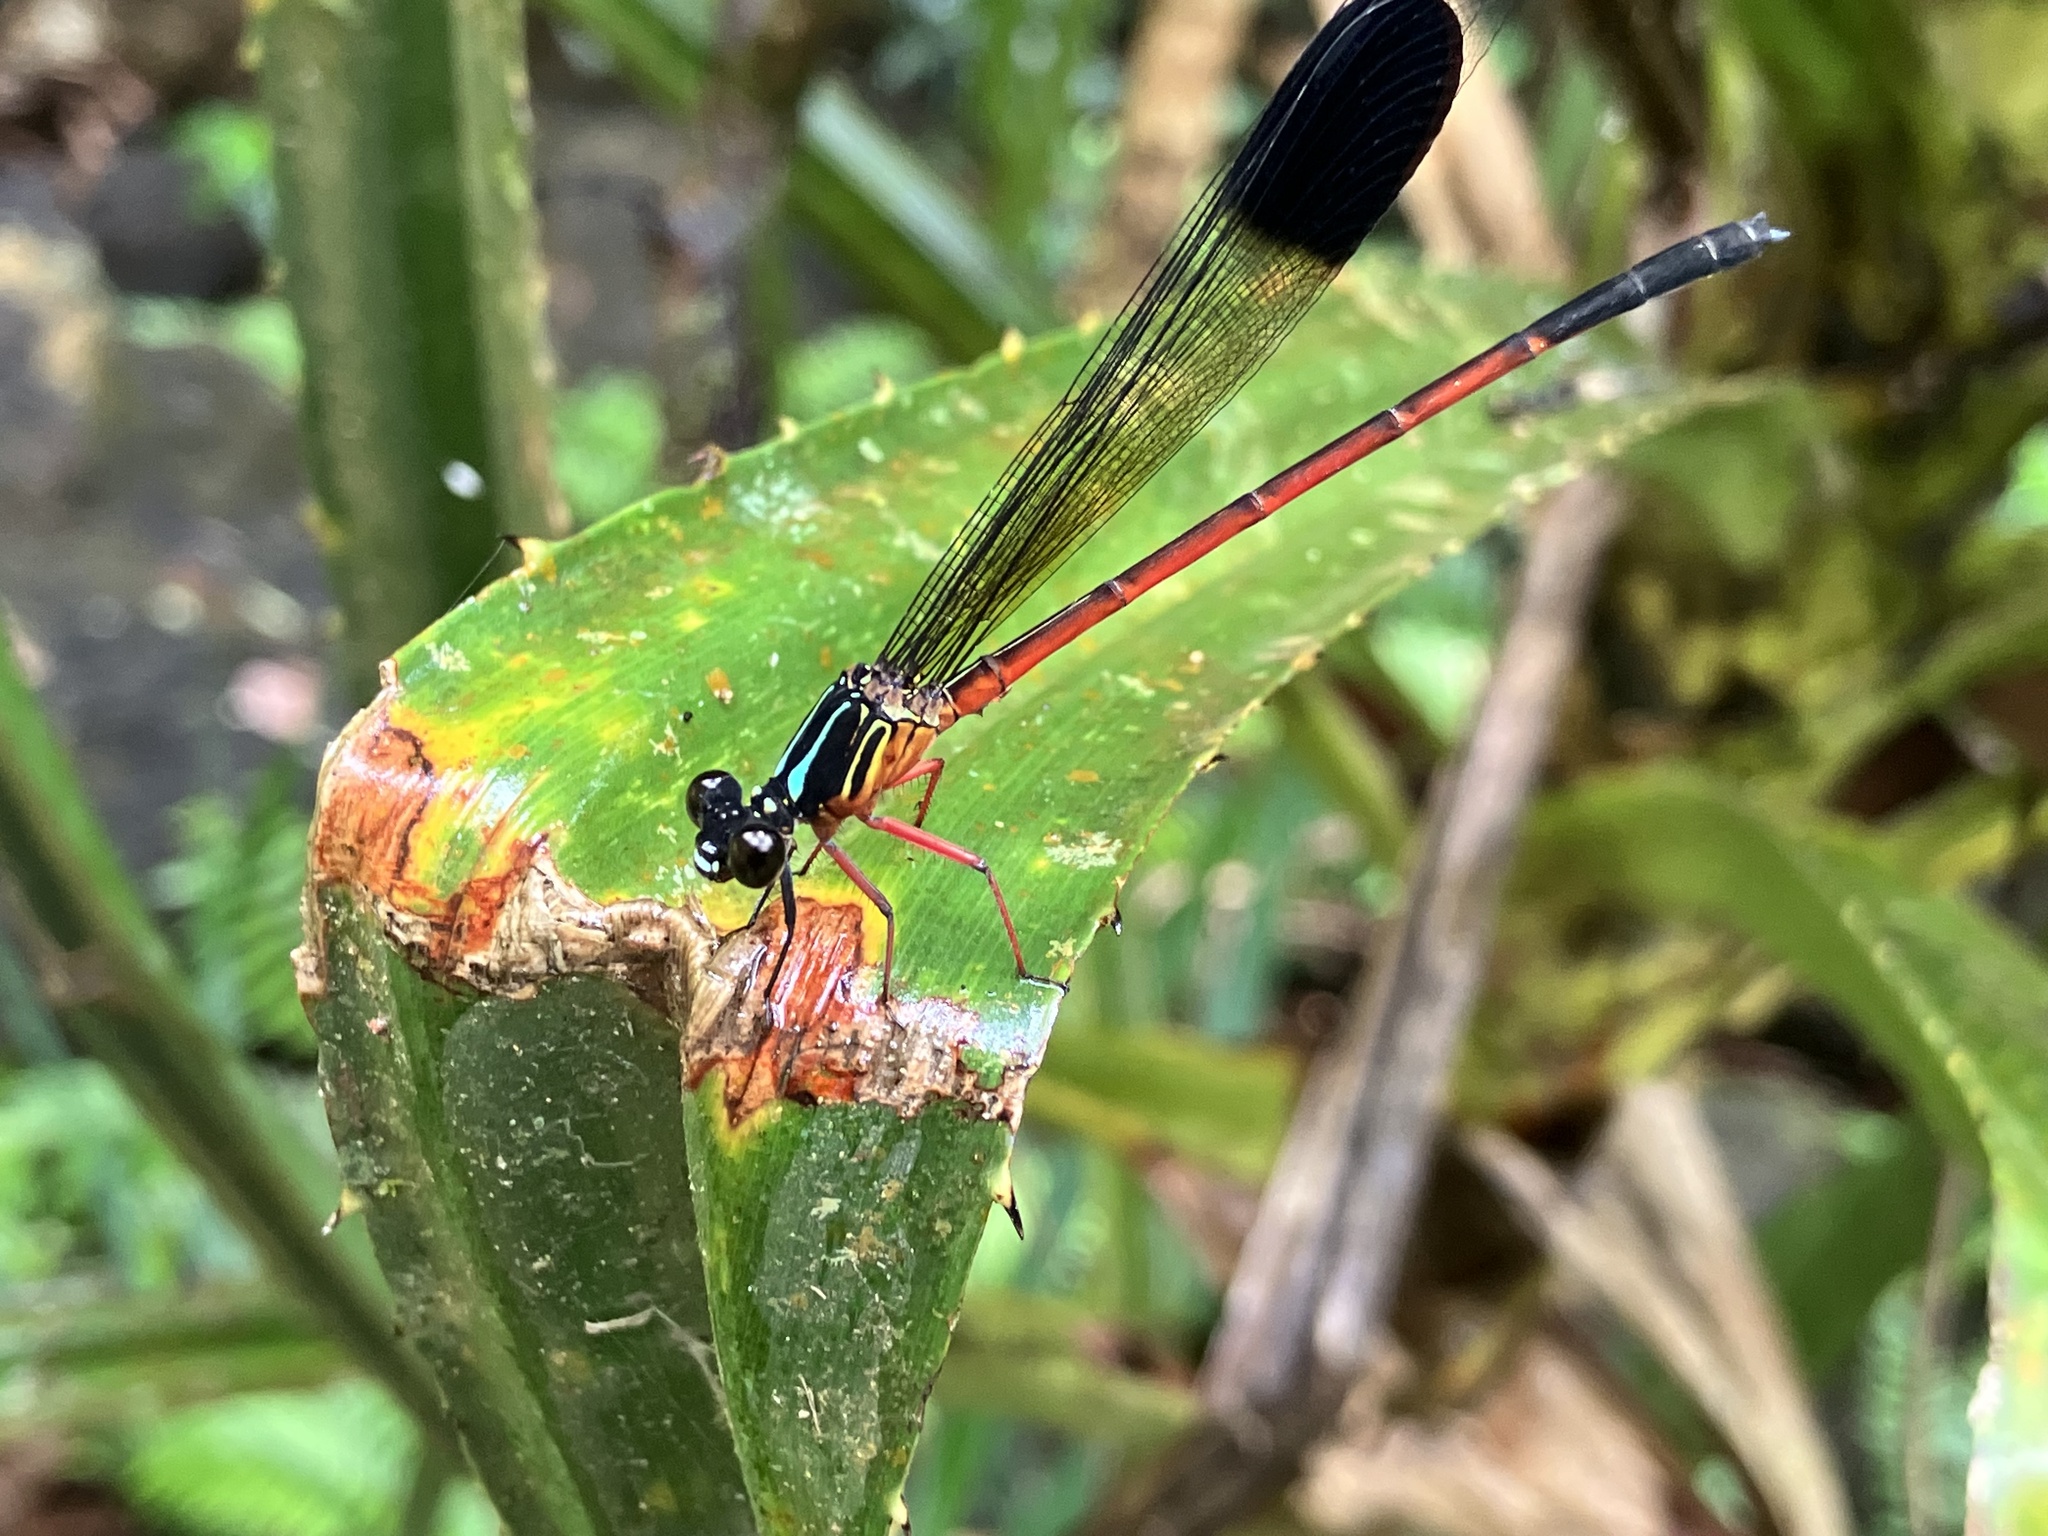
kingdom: Animalia
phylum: Arthropoda
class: Insecta
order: Odonata
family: Euphaeidae
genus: Euphaea
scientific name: Euphaea fraseri
